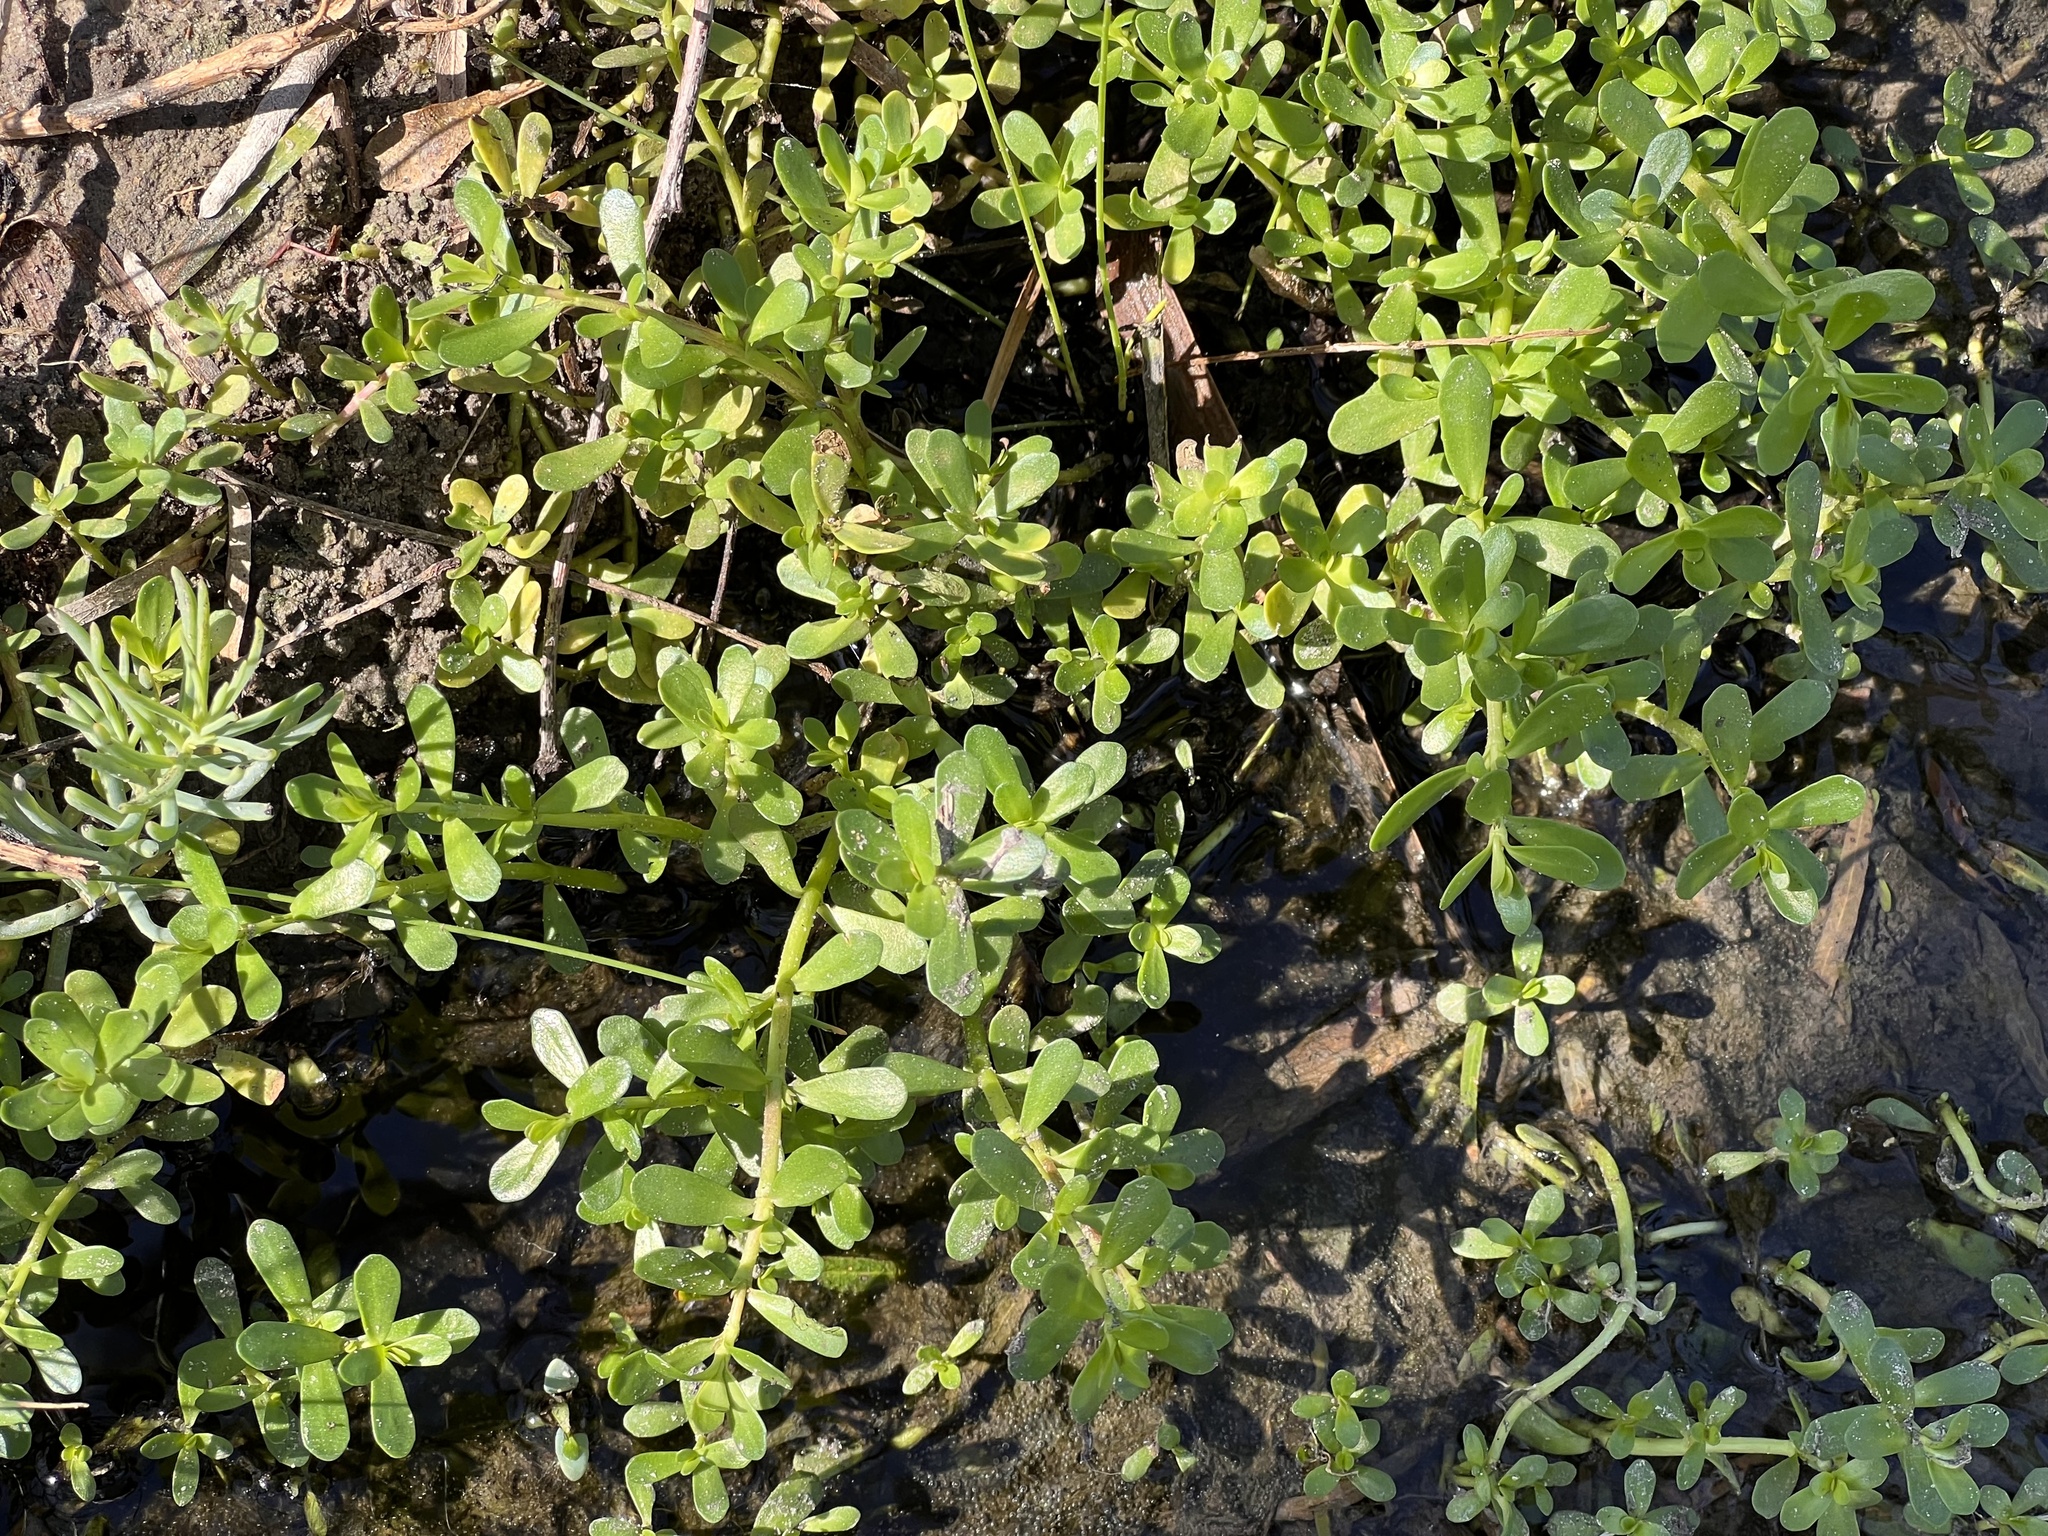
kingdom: Plantae
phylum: Tracheophyta
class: Magnoliopsida
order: Lamiales
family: Plantaginaceae
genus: Bacopa
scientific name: Bacopa monnieri
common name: Indian-pennywort
